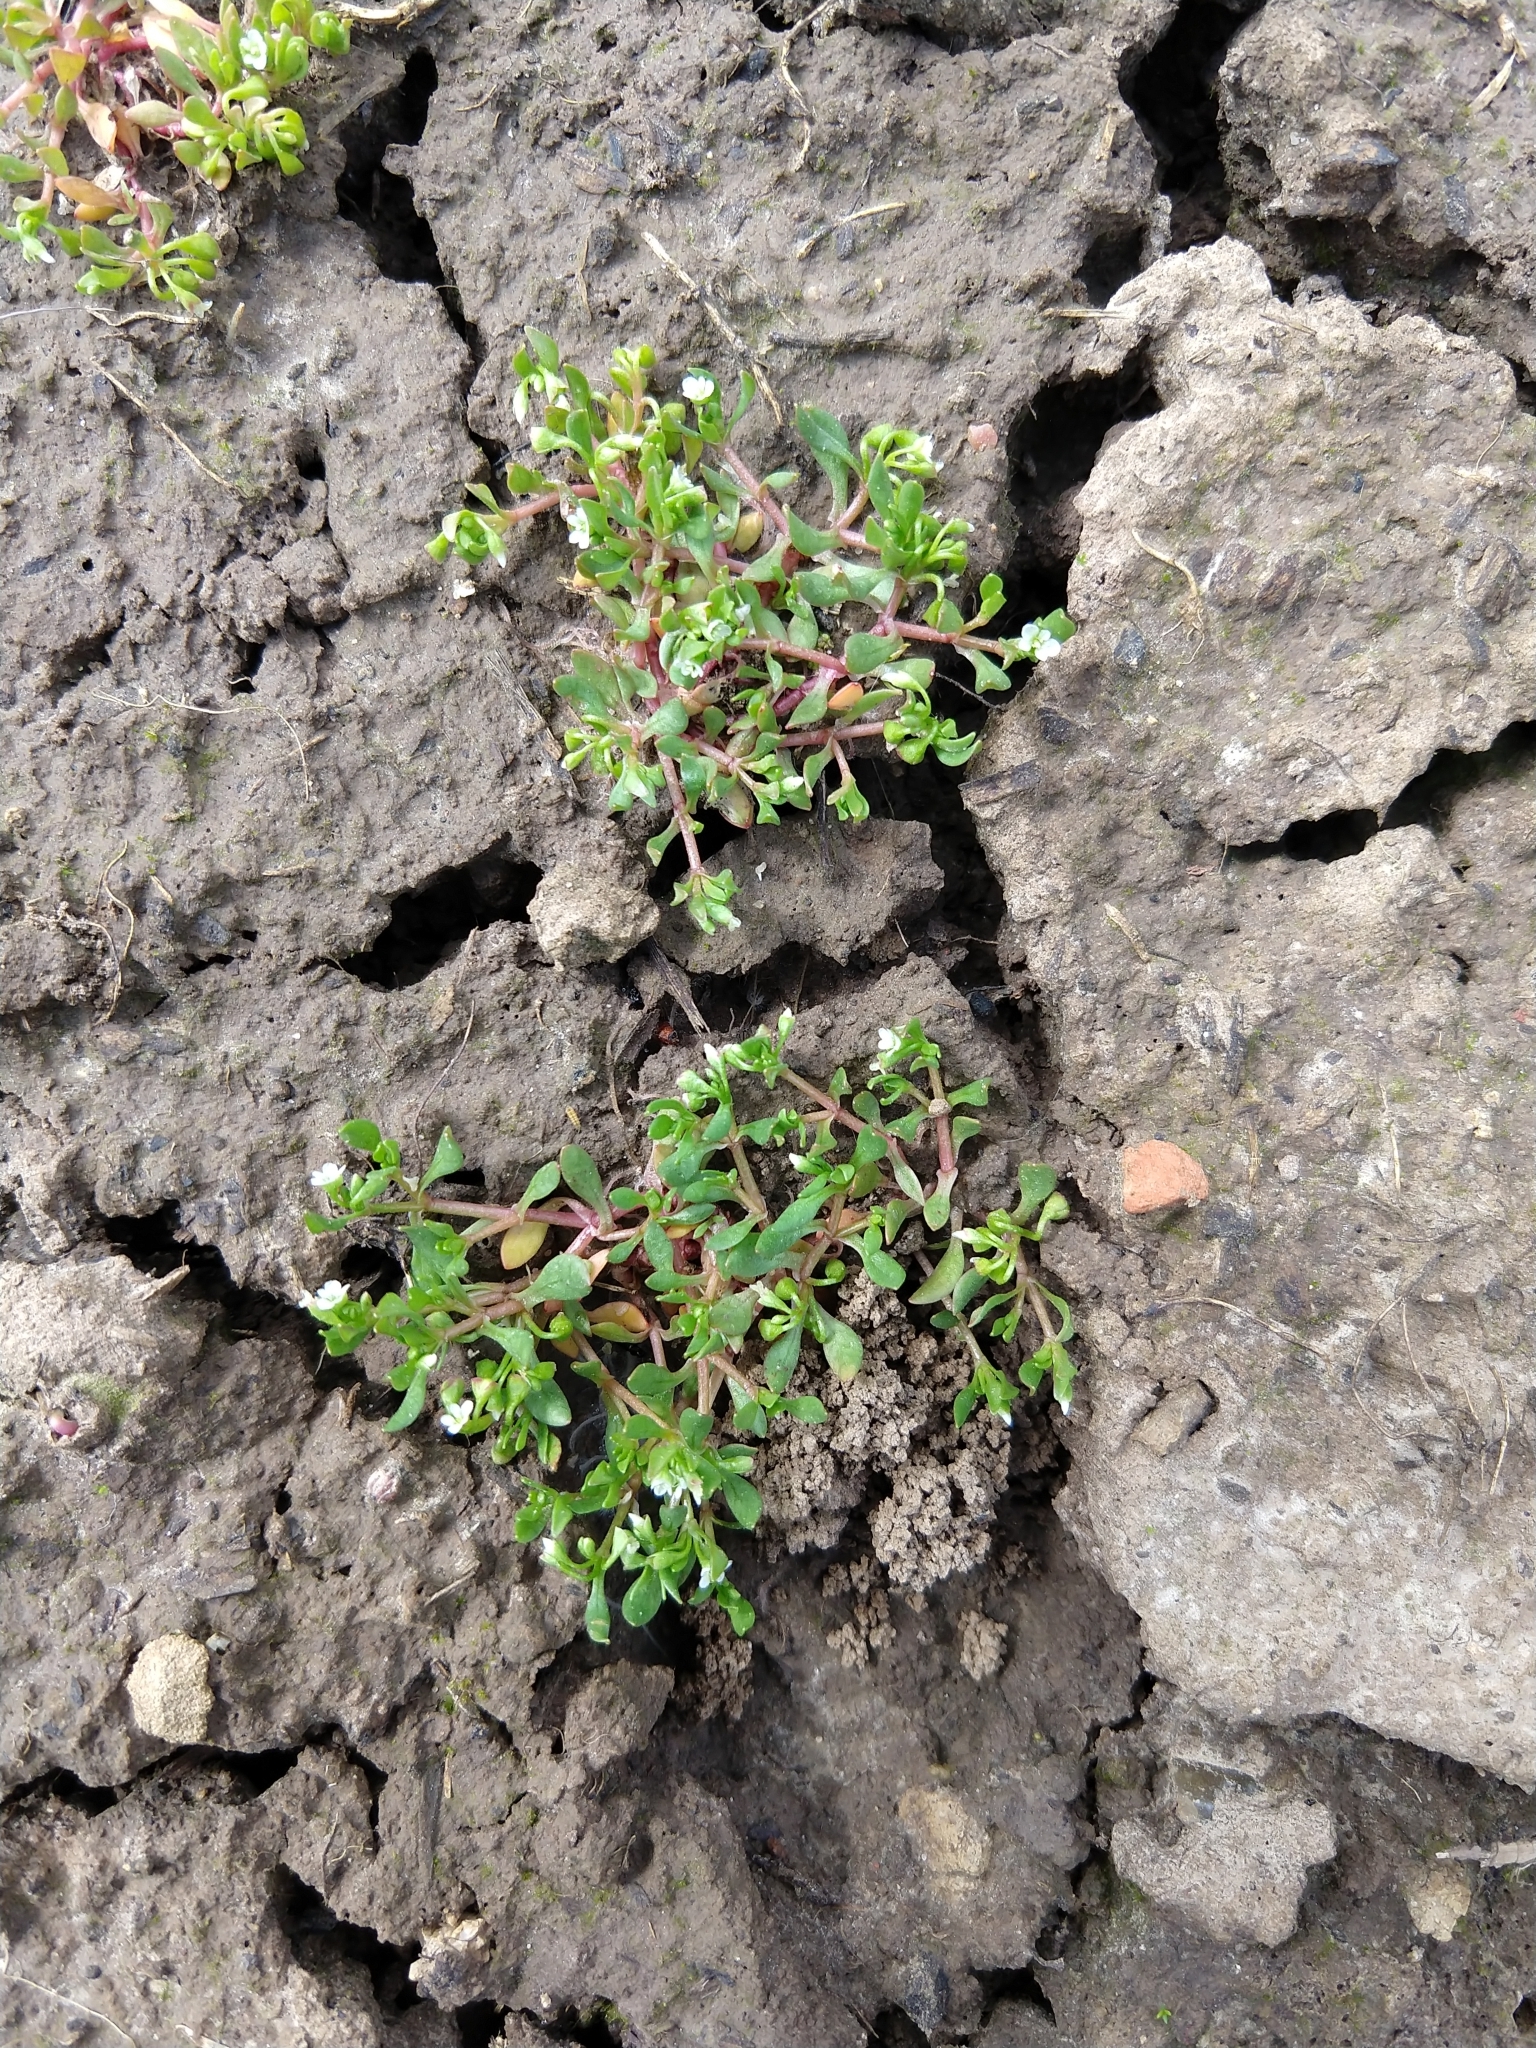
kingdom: Plantae
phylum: Tracheophyta
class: Magnoliopsida
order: Caryophyllales
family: Montiaceae
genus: Montia
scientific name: Montia fontana
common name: Blinks
